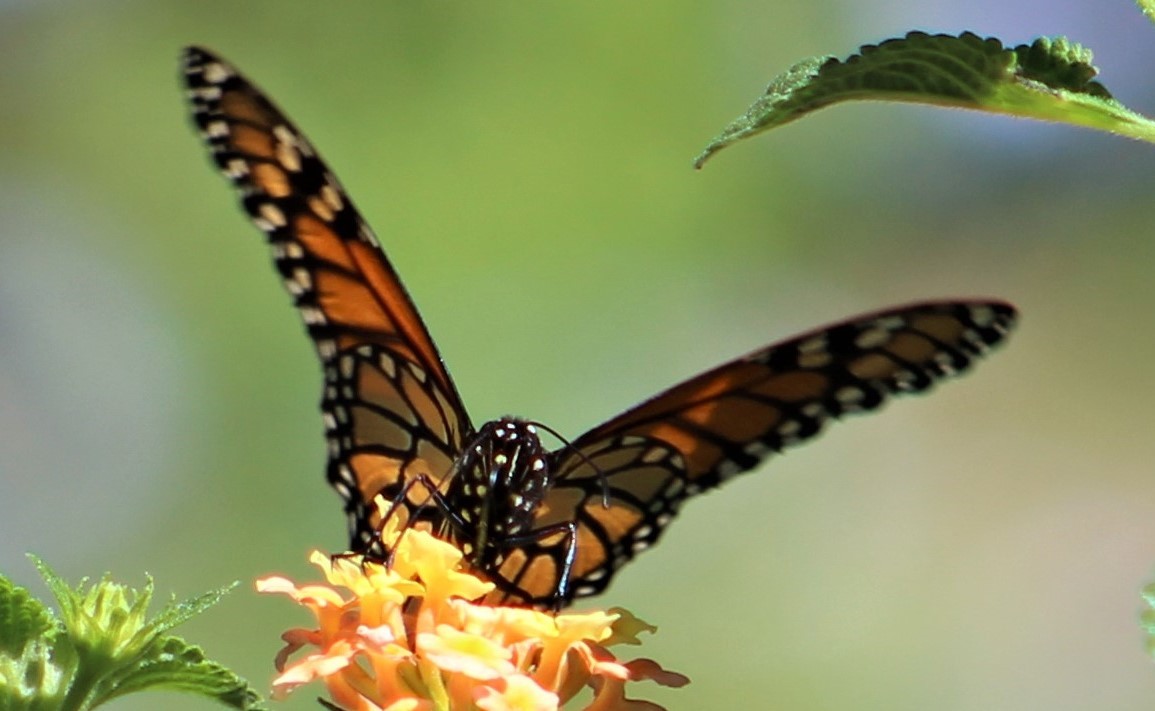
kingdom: Animalia
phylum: Arthropoda
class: Insecta
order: Lepidoptera
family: Nymphalidae
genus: Danaus
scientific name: Danaus plexippus
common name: Monarch
